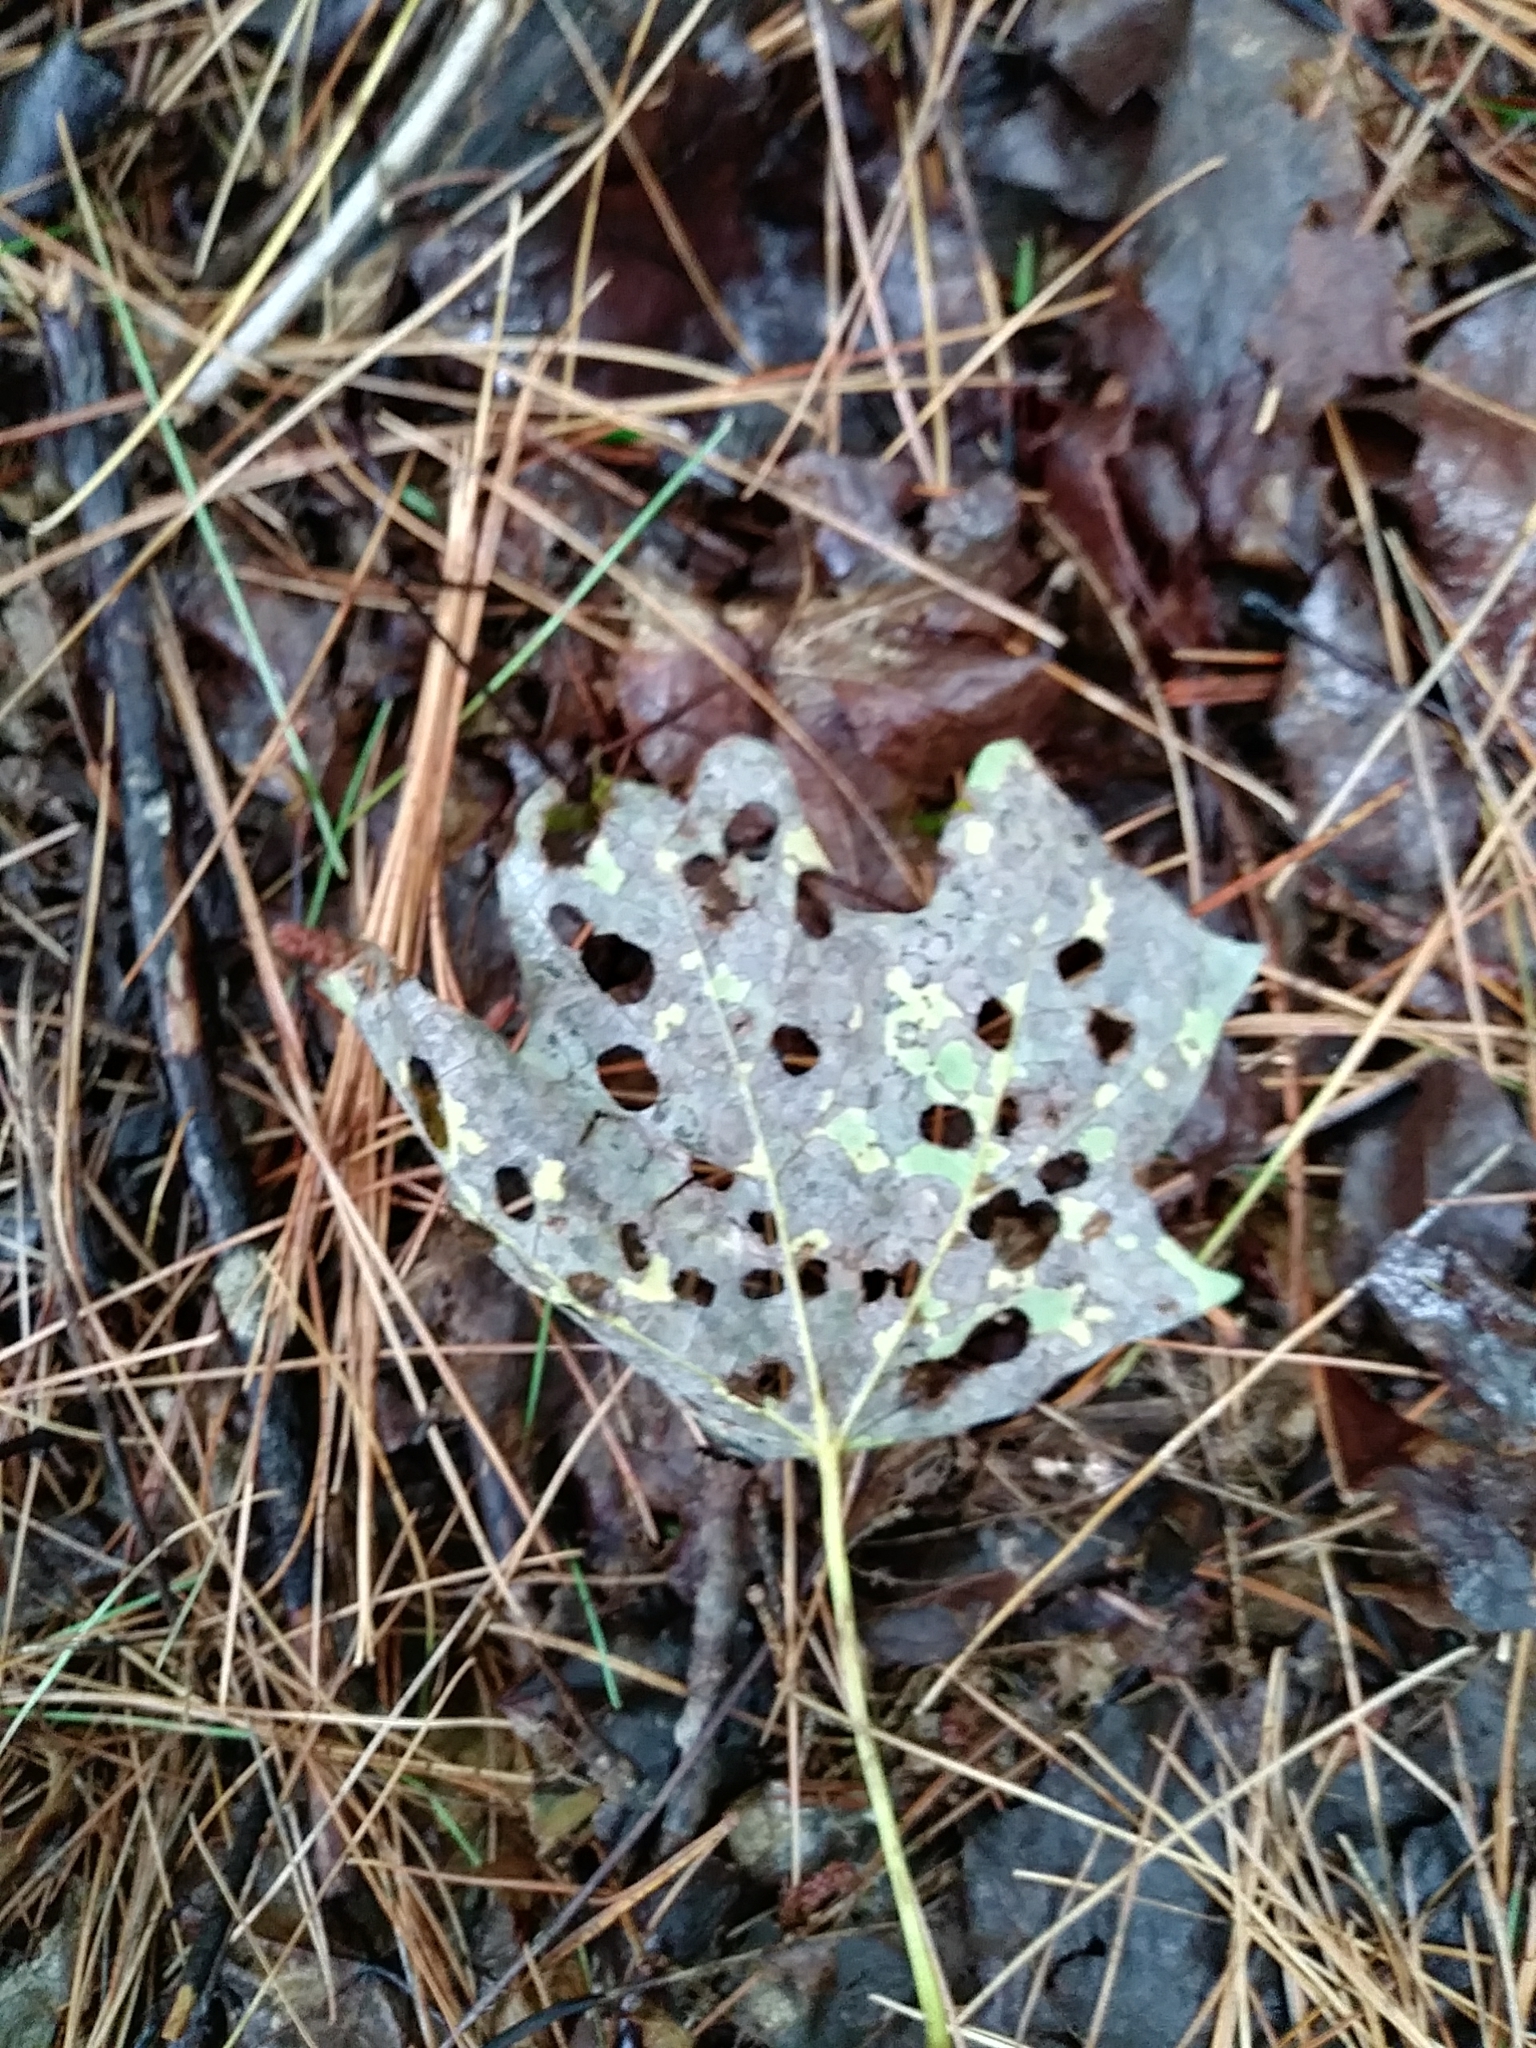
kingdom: Animalia
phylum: Arthropoda
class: Insecta
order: Lepidoptera
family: Incurvariidae
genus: Paraclemensia
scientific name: Paraclemensia acerifoliella
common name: Maple leafcutter
